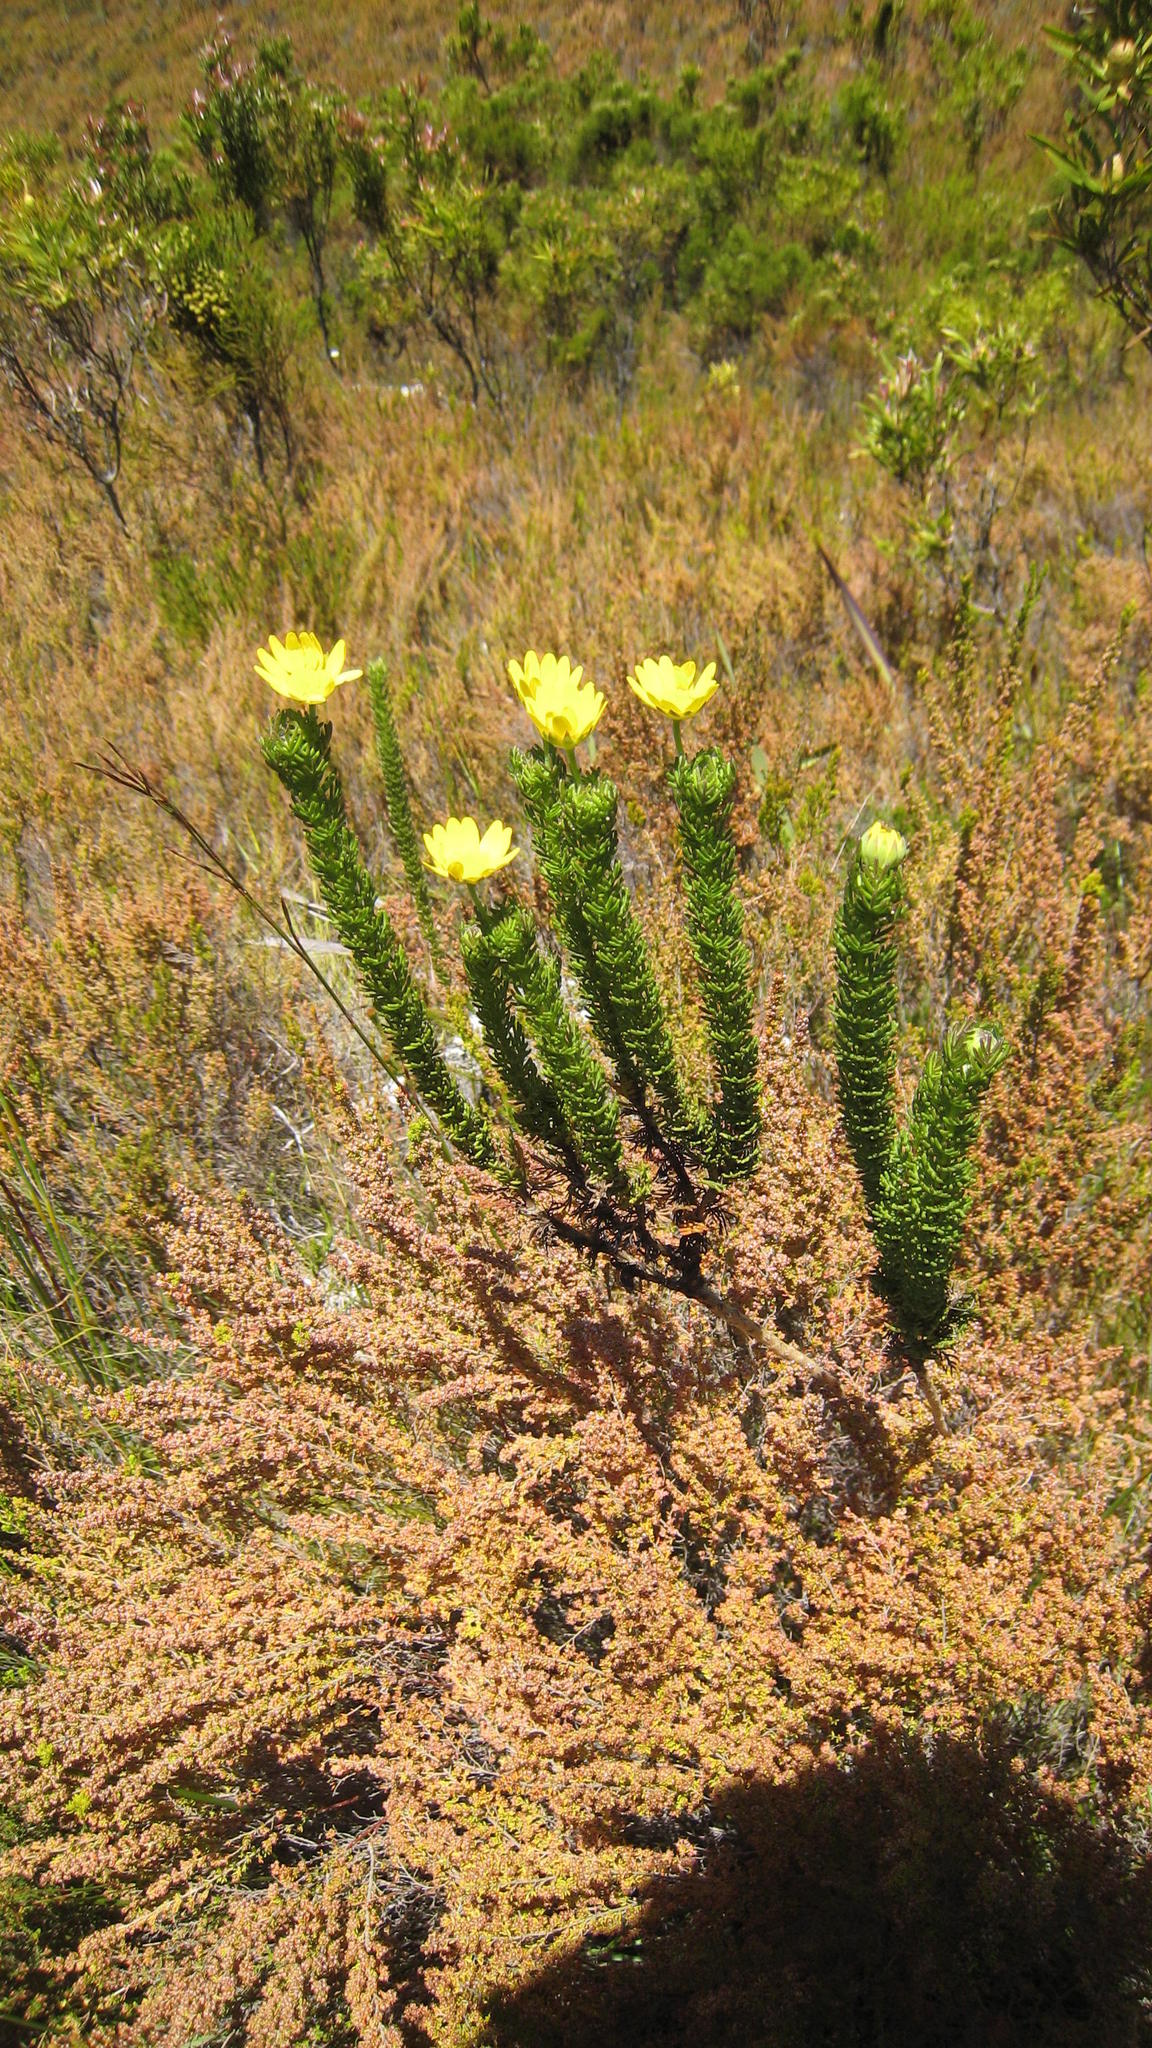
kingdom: Plantae
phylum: Tracheophyta
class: Magnoliopsida
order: Asterales
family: Asteraceae
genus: Euryops
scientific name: Euryops pinnatipartitus
